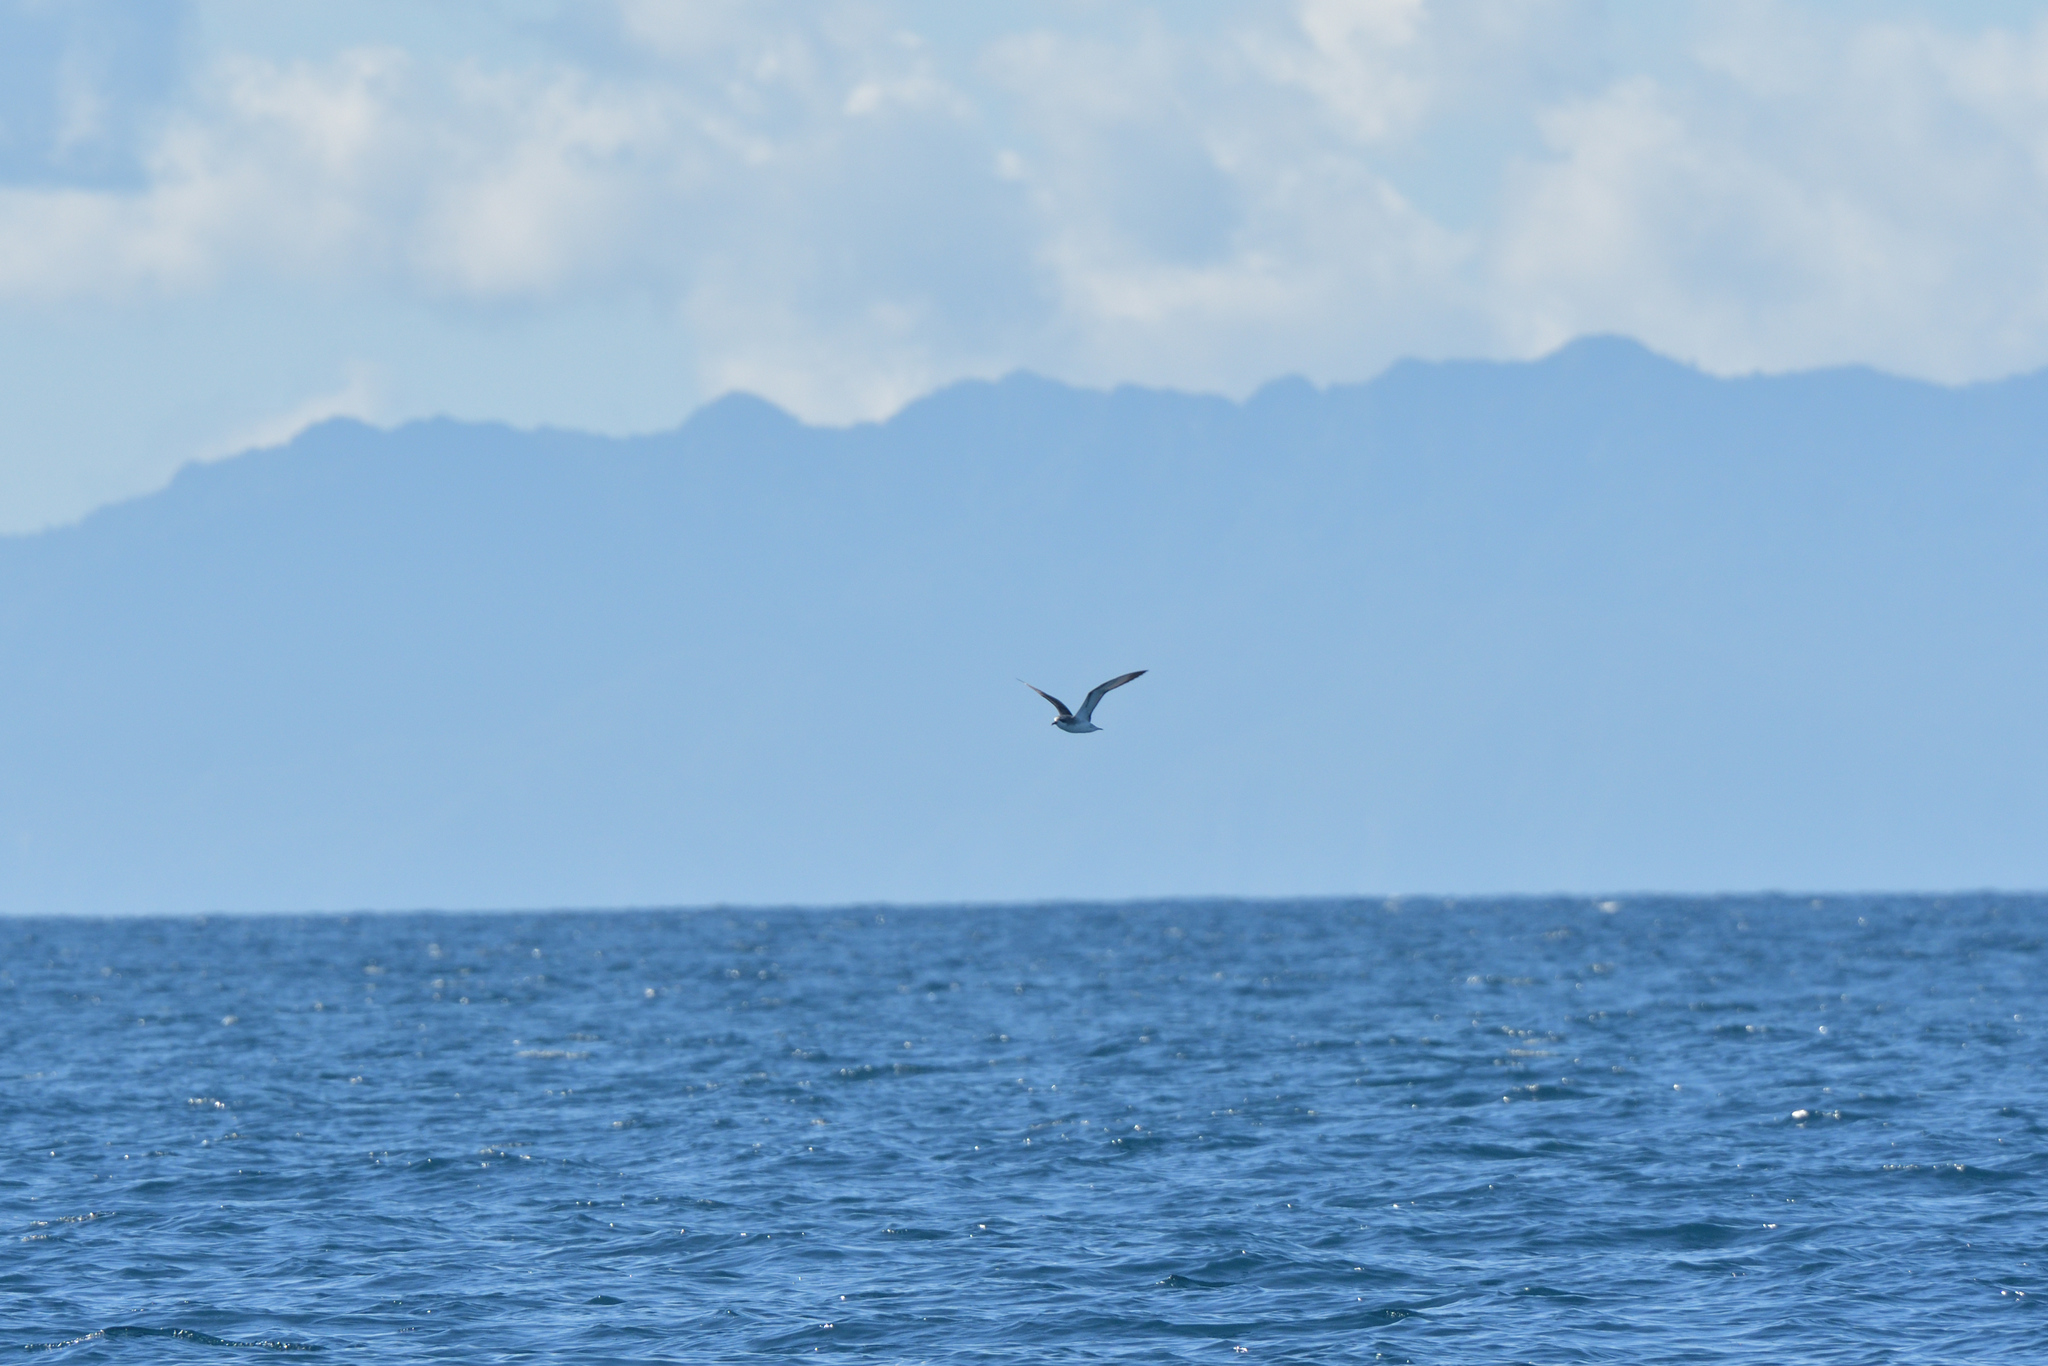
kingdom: Animalia
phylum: Chordata
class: Aves
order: Procellariiformes
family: Procellariidae
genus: Pterodroma
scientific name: Pterodroma cookii
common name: Cook's petrel
